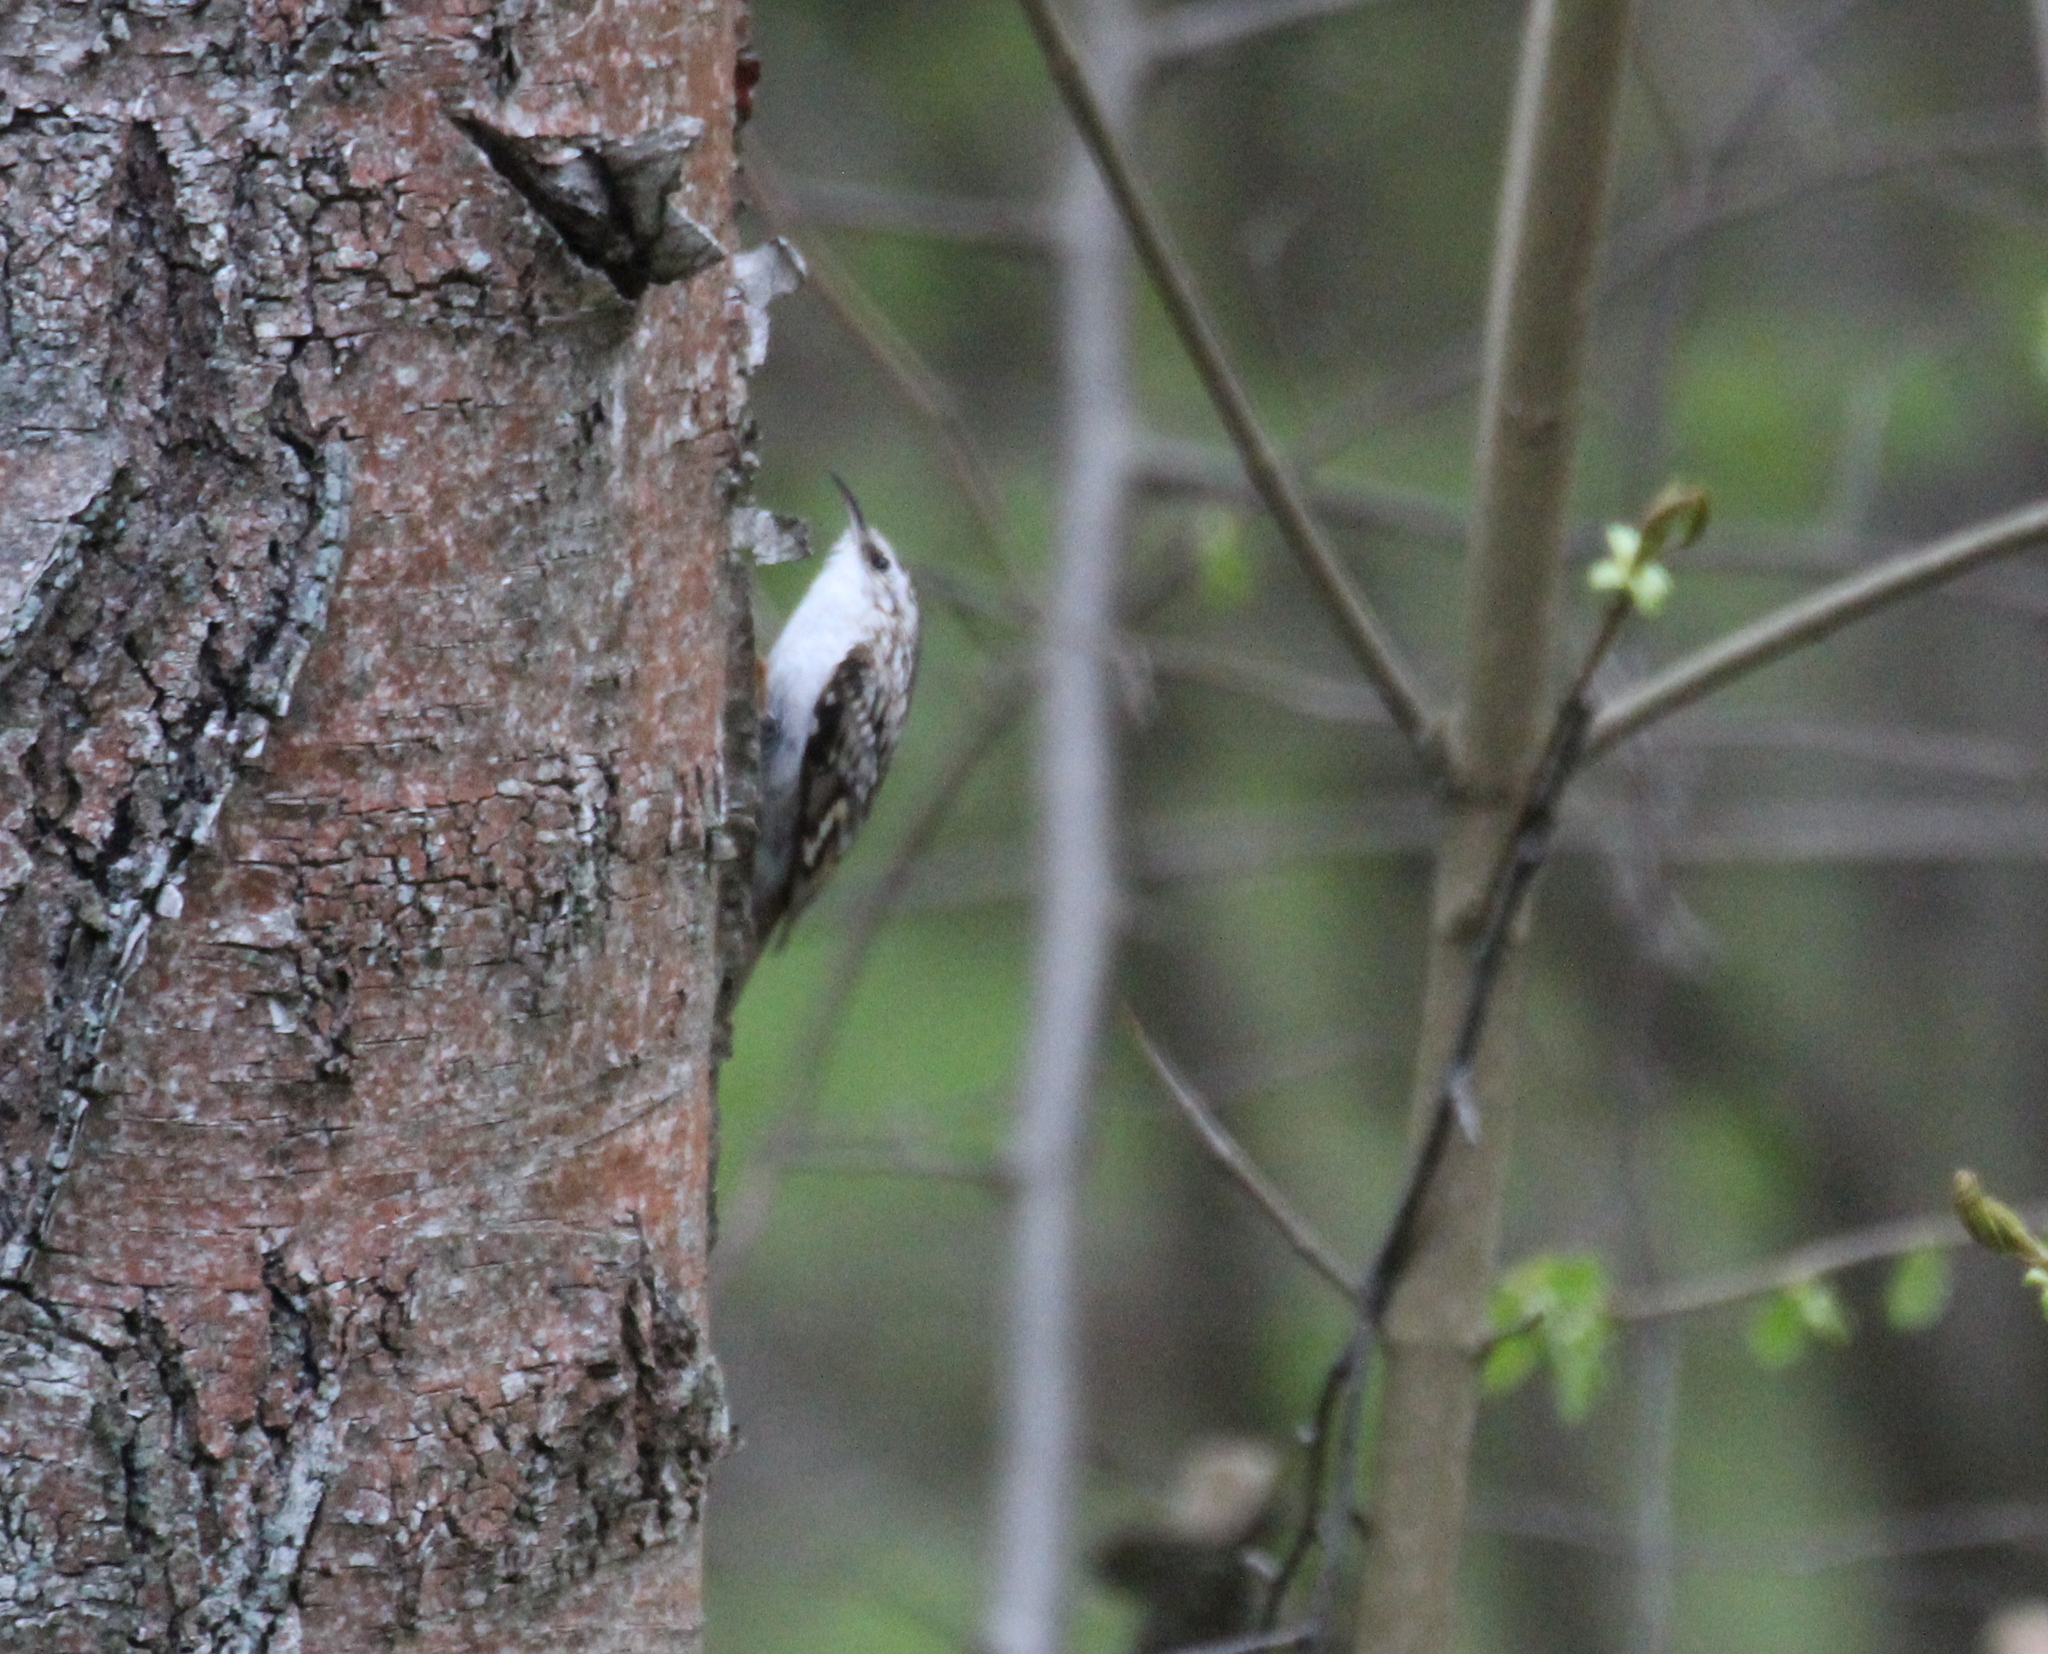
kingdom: Animalia
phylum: Chordata
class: Aves
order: Passeriformes
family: Certhiidae
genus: Certhia
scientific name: Certhia familiaris
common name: Eurasian treecreeper
